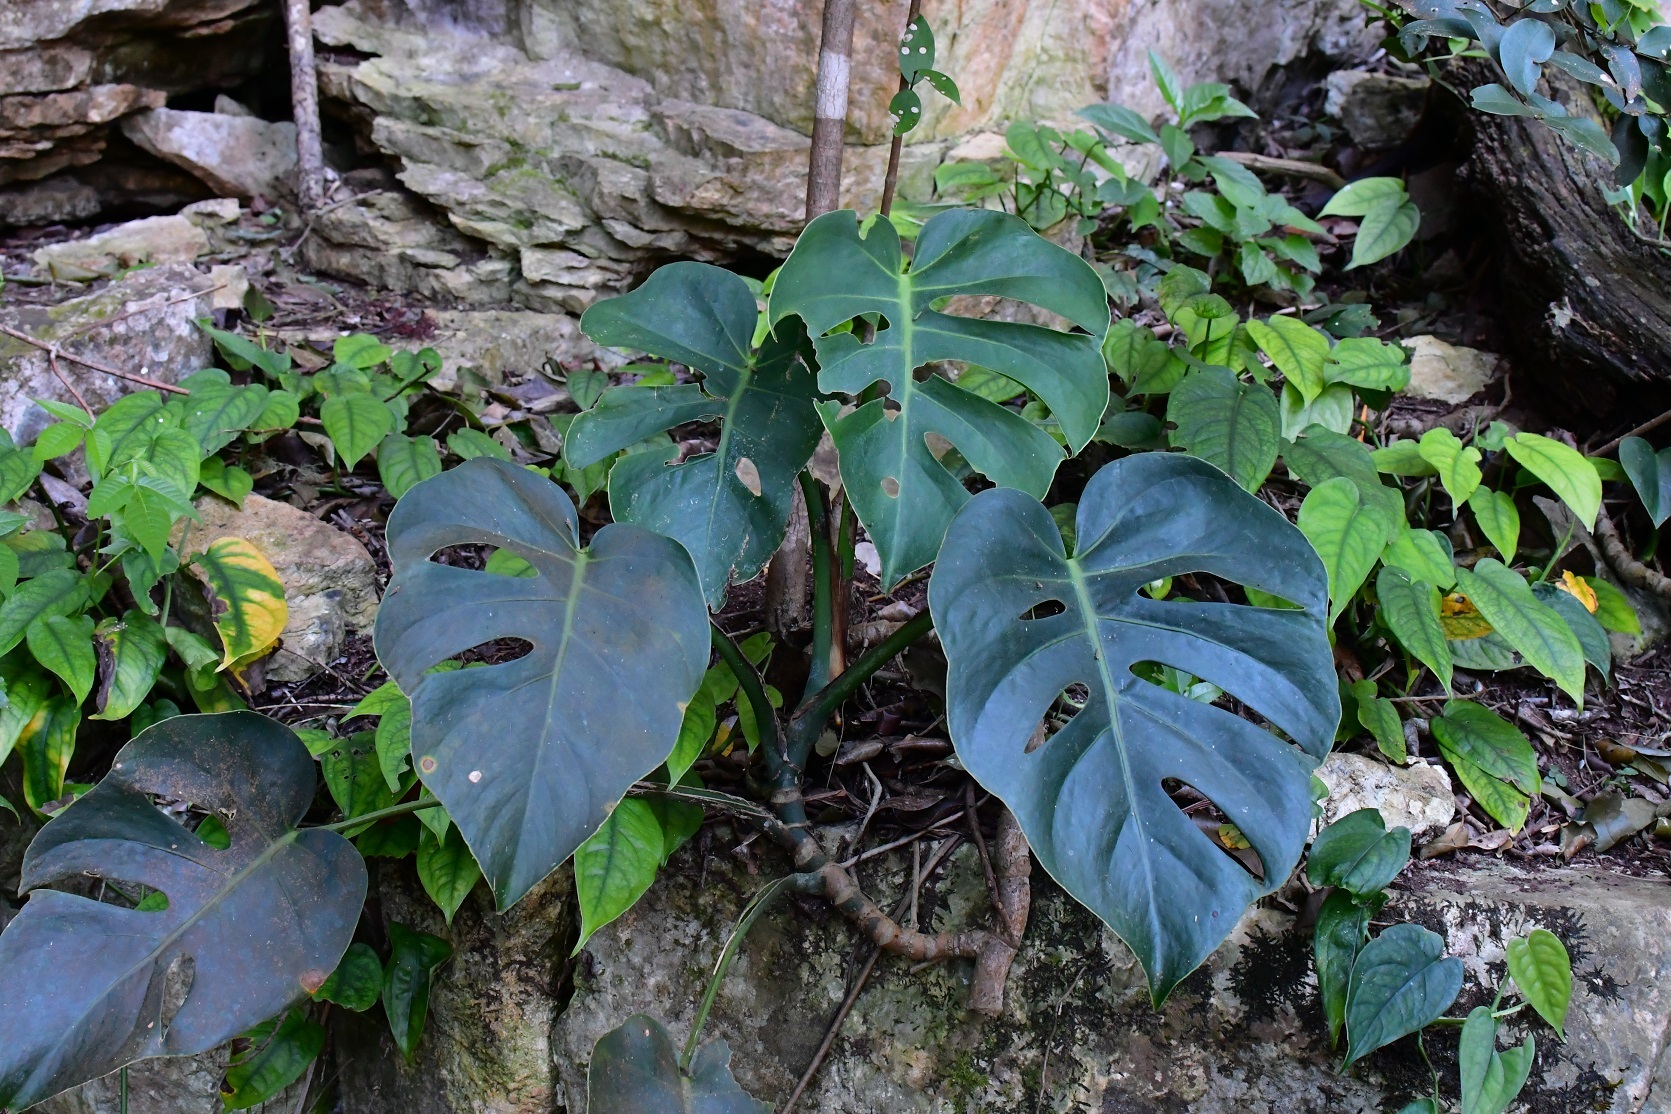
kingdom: Plantae
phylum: Tracheophyta
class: Liliopsida
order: Alismatales
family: Araceae
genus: Monstera
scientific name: Monstera siltepecana
